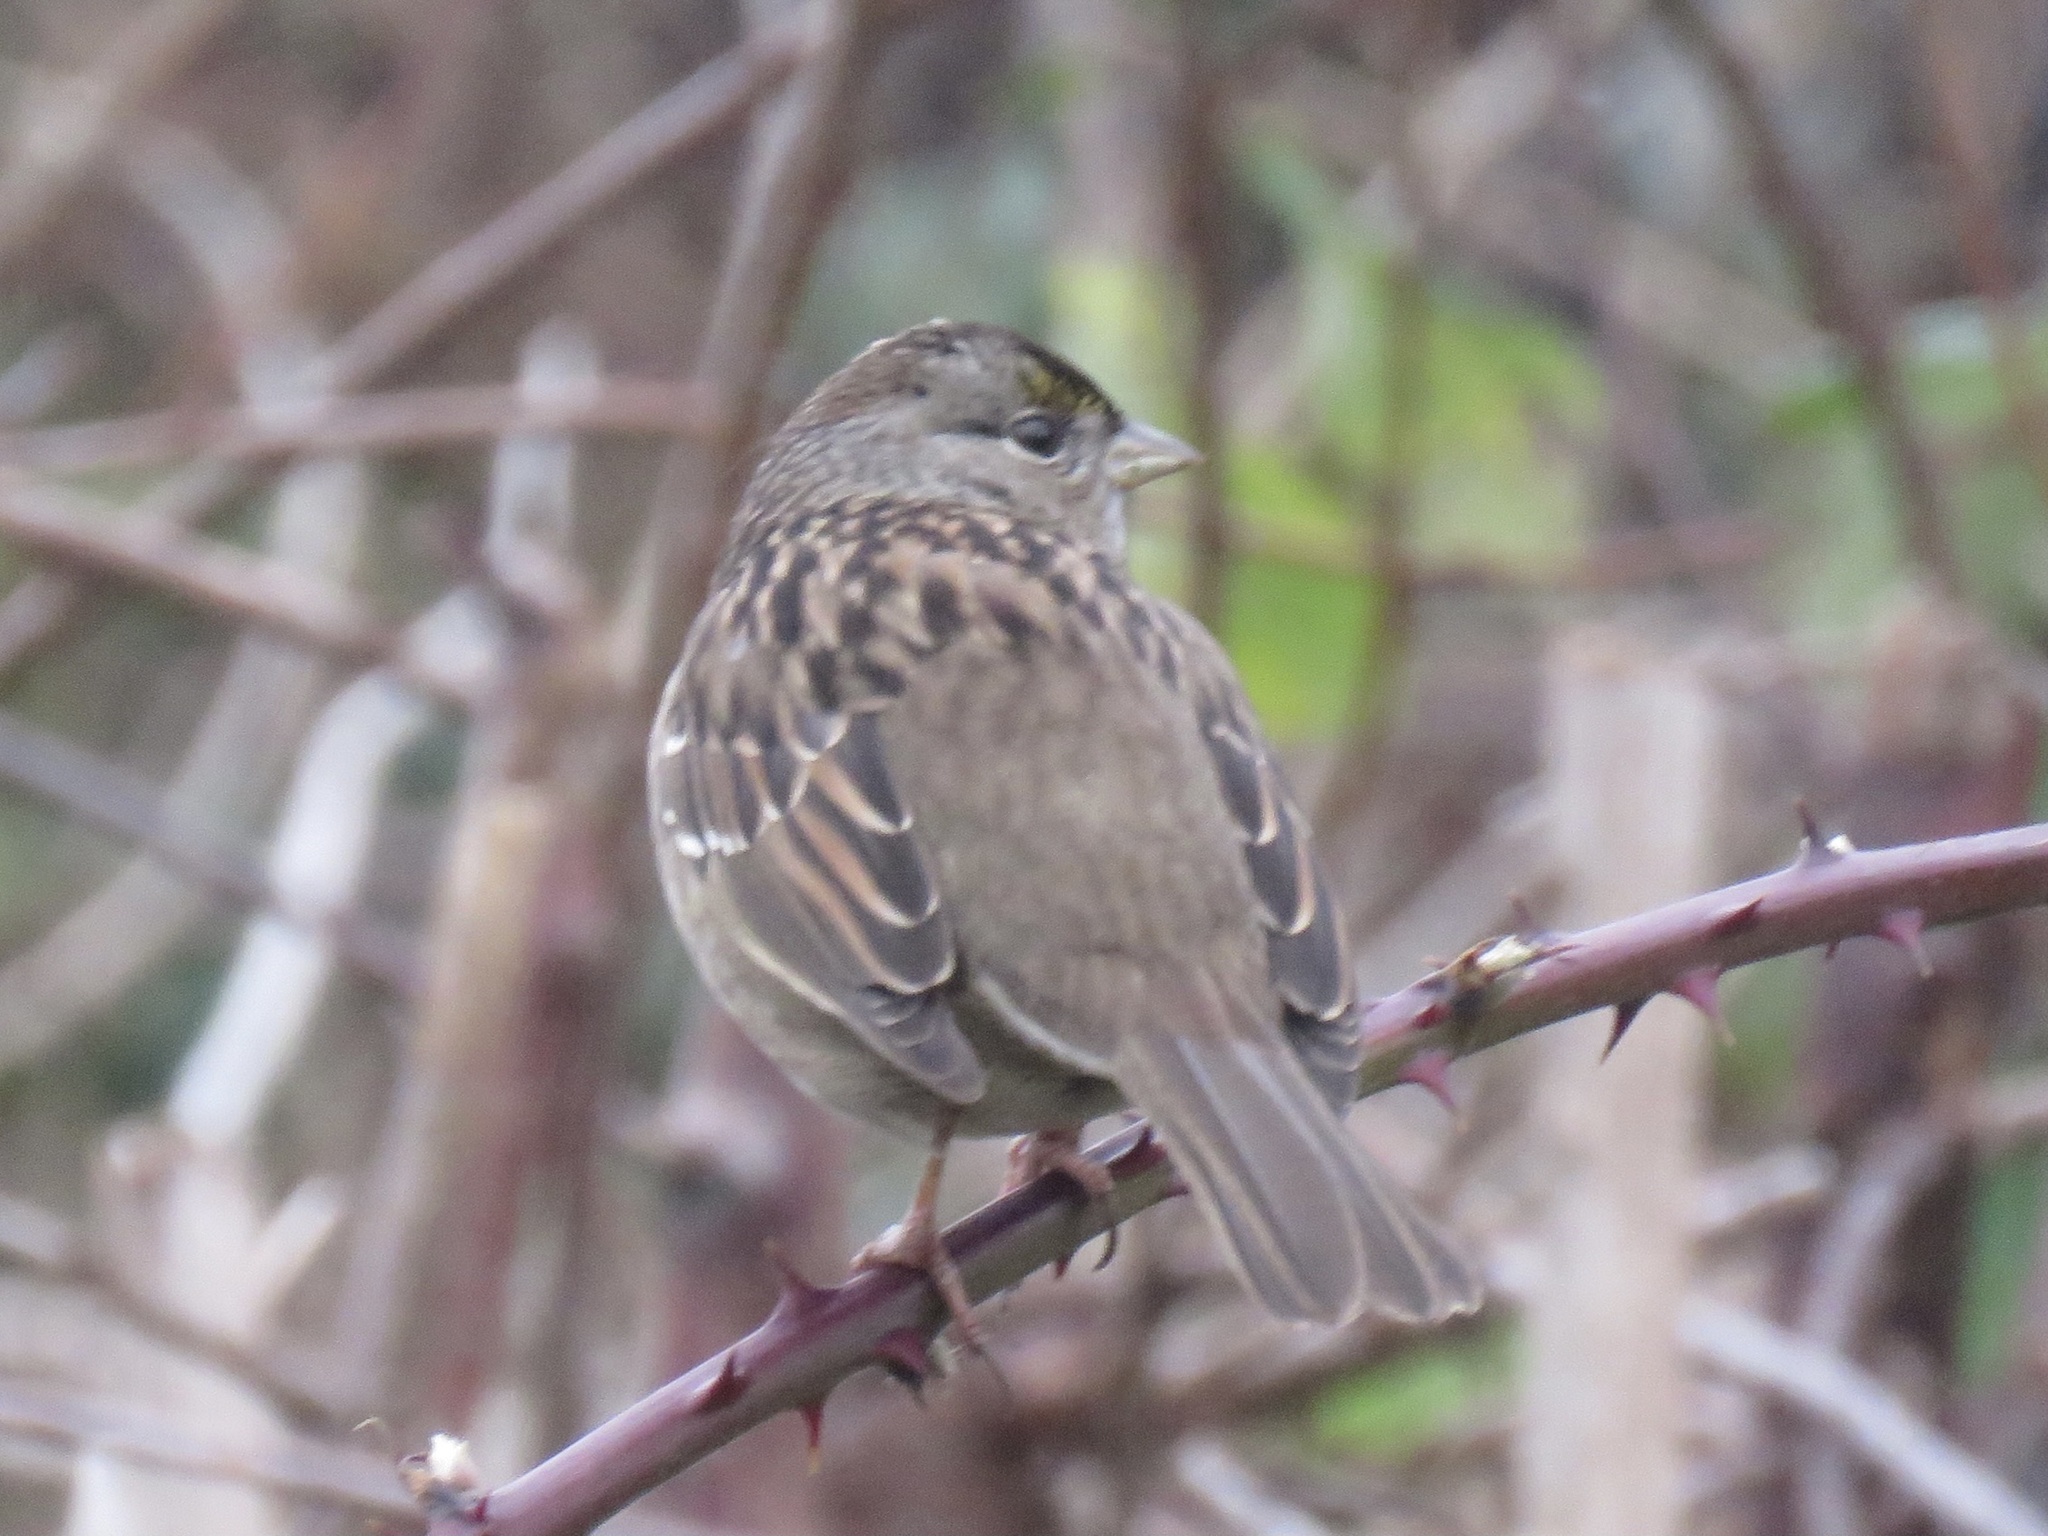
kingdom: Animalia
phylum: Chordata
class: Aves
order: Passeriformes
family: Passerellidae
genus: Zonotrichia
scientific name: Zonotrichia atricapilla
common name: Golden-crowned sparrow
